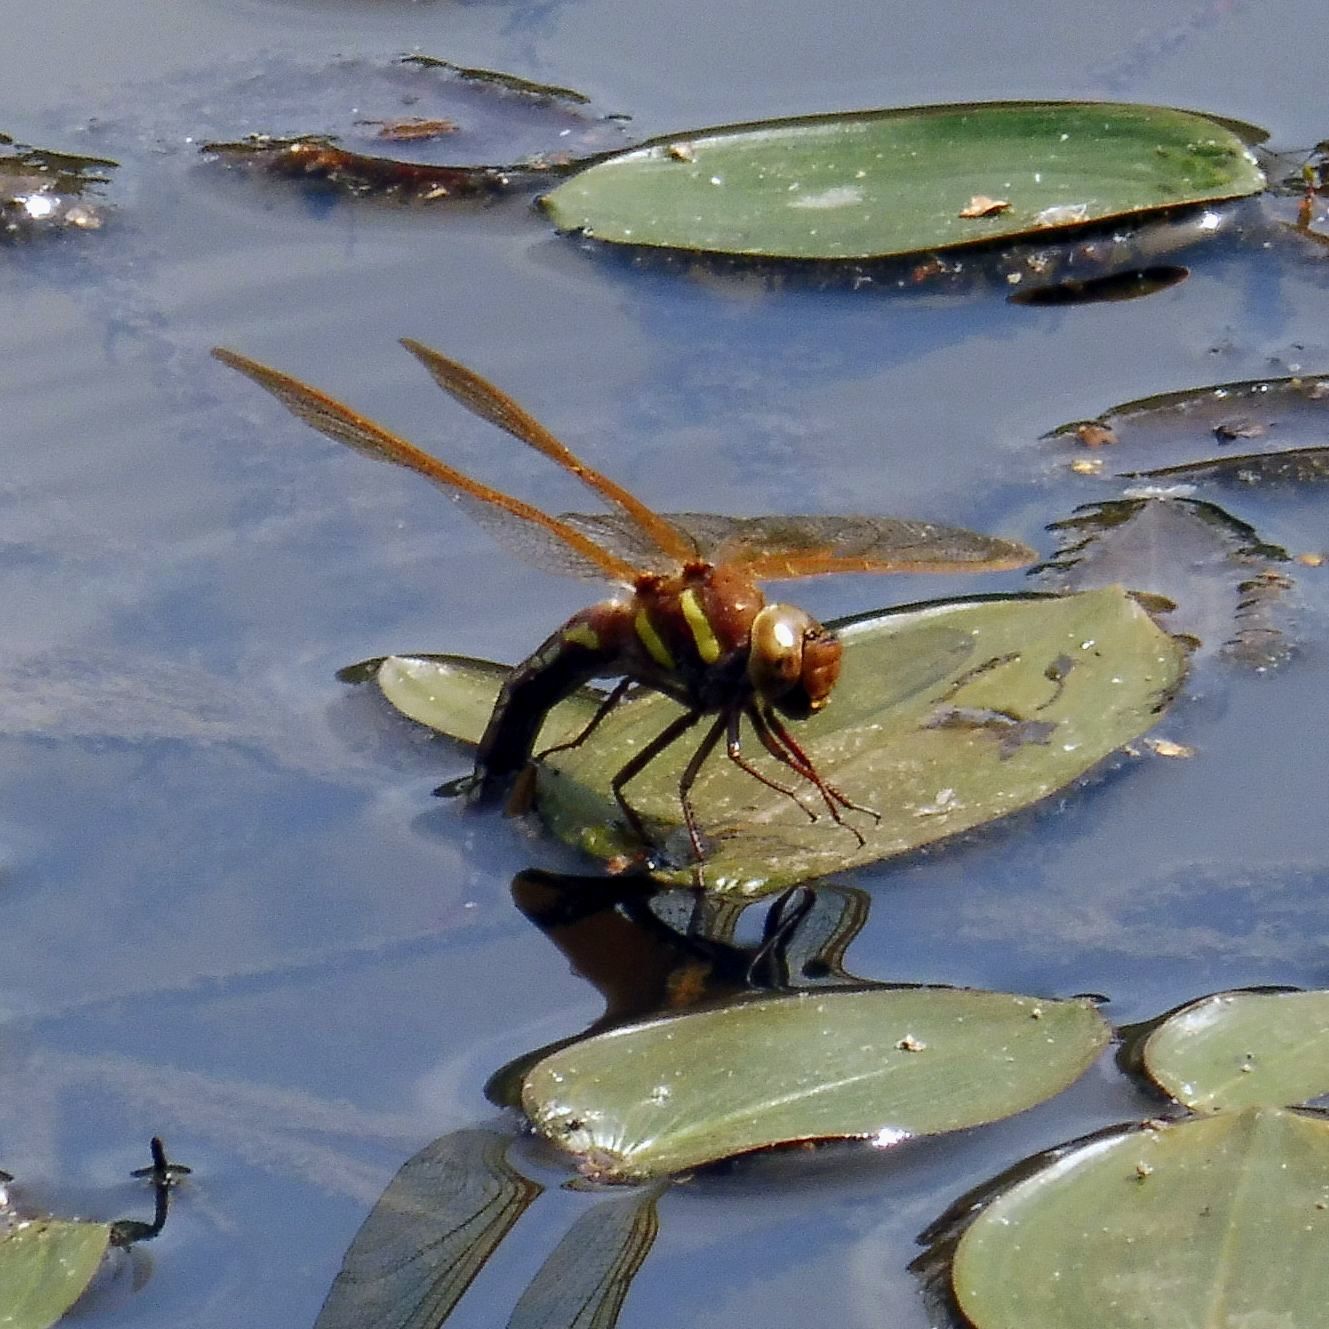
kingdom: Animalia
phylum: Arthropoda
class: Insecta
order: Odonata
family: Aeshnidae
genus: Aeshna
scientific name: Aeshna grandis
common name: Brown hawker
